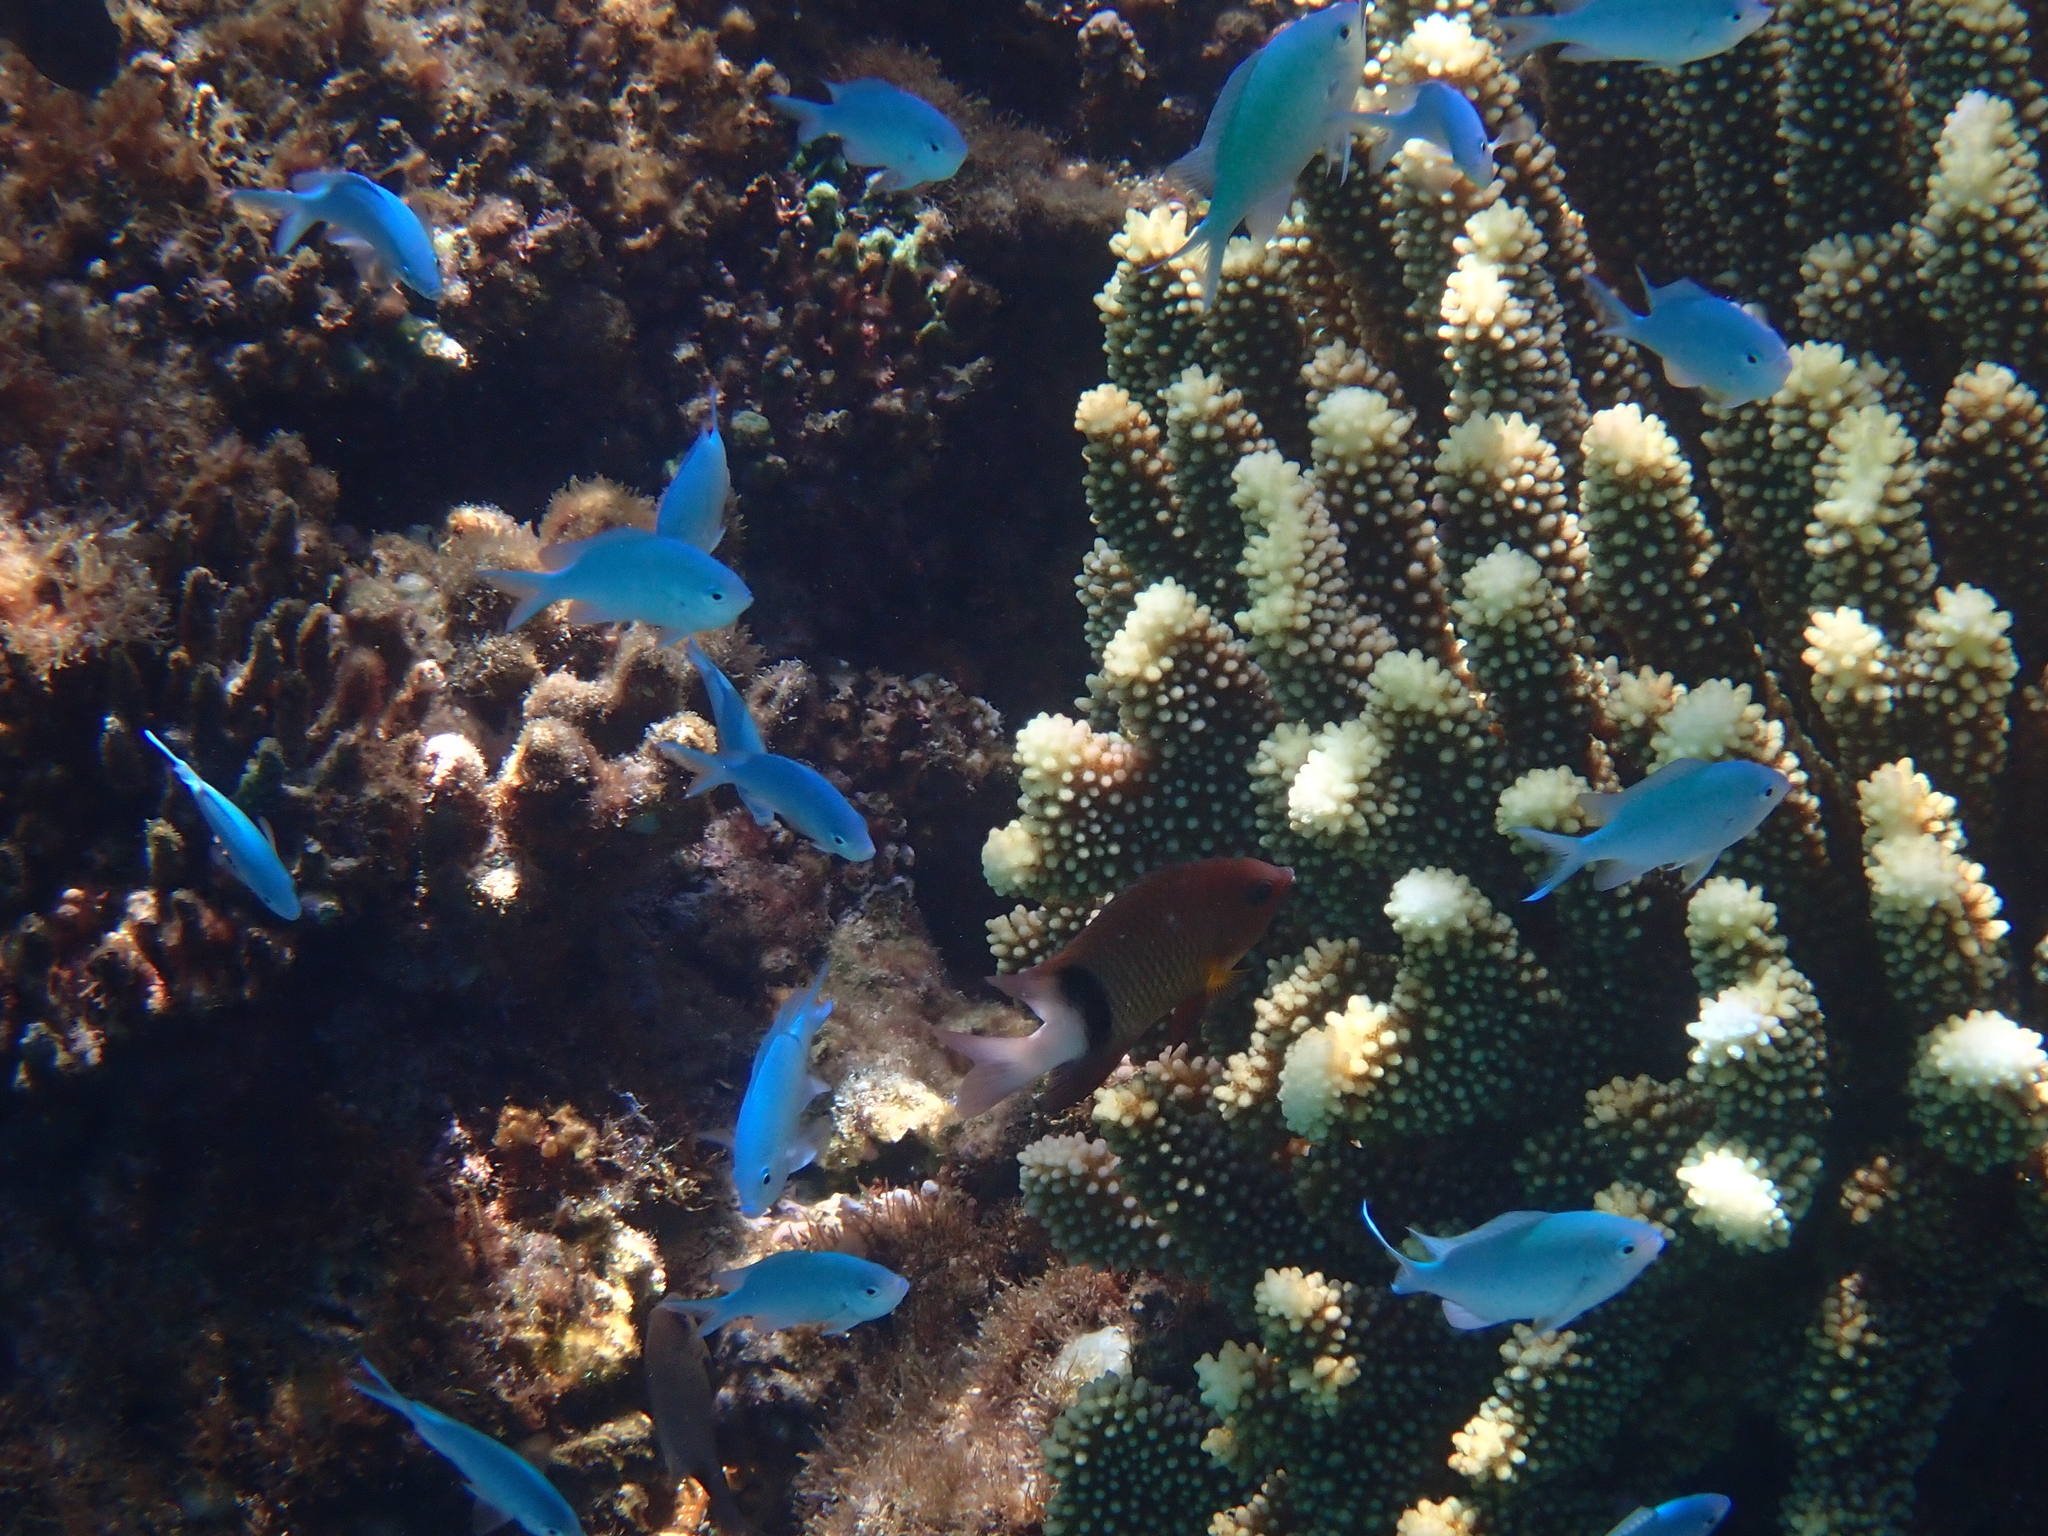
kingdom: Animalia
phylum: Chordata
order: Perciformes
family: Pomacentridae
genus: Plectroglyphidodon
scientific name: Plectroglyphidodon dickii
